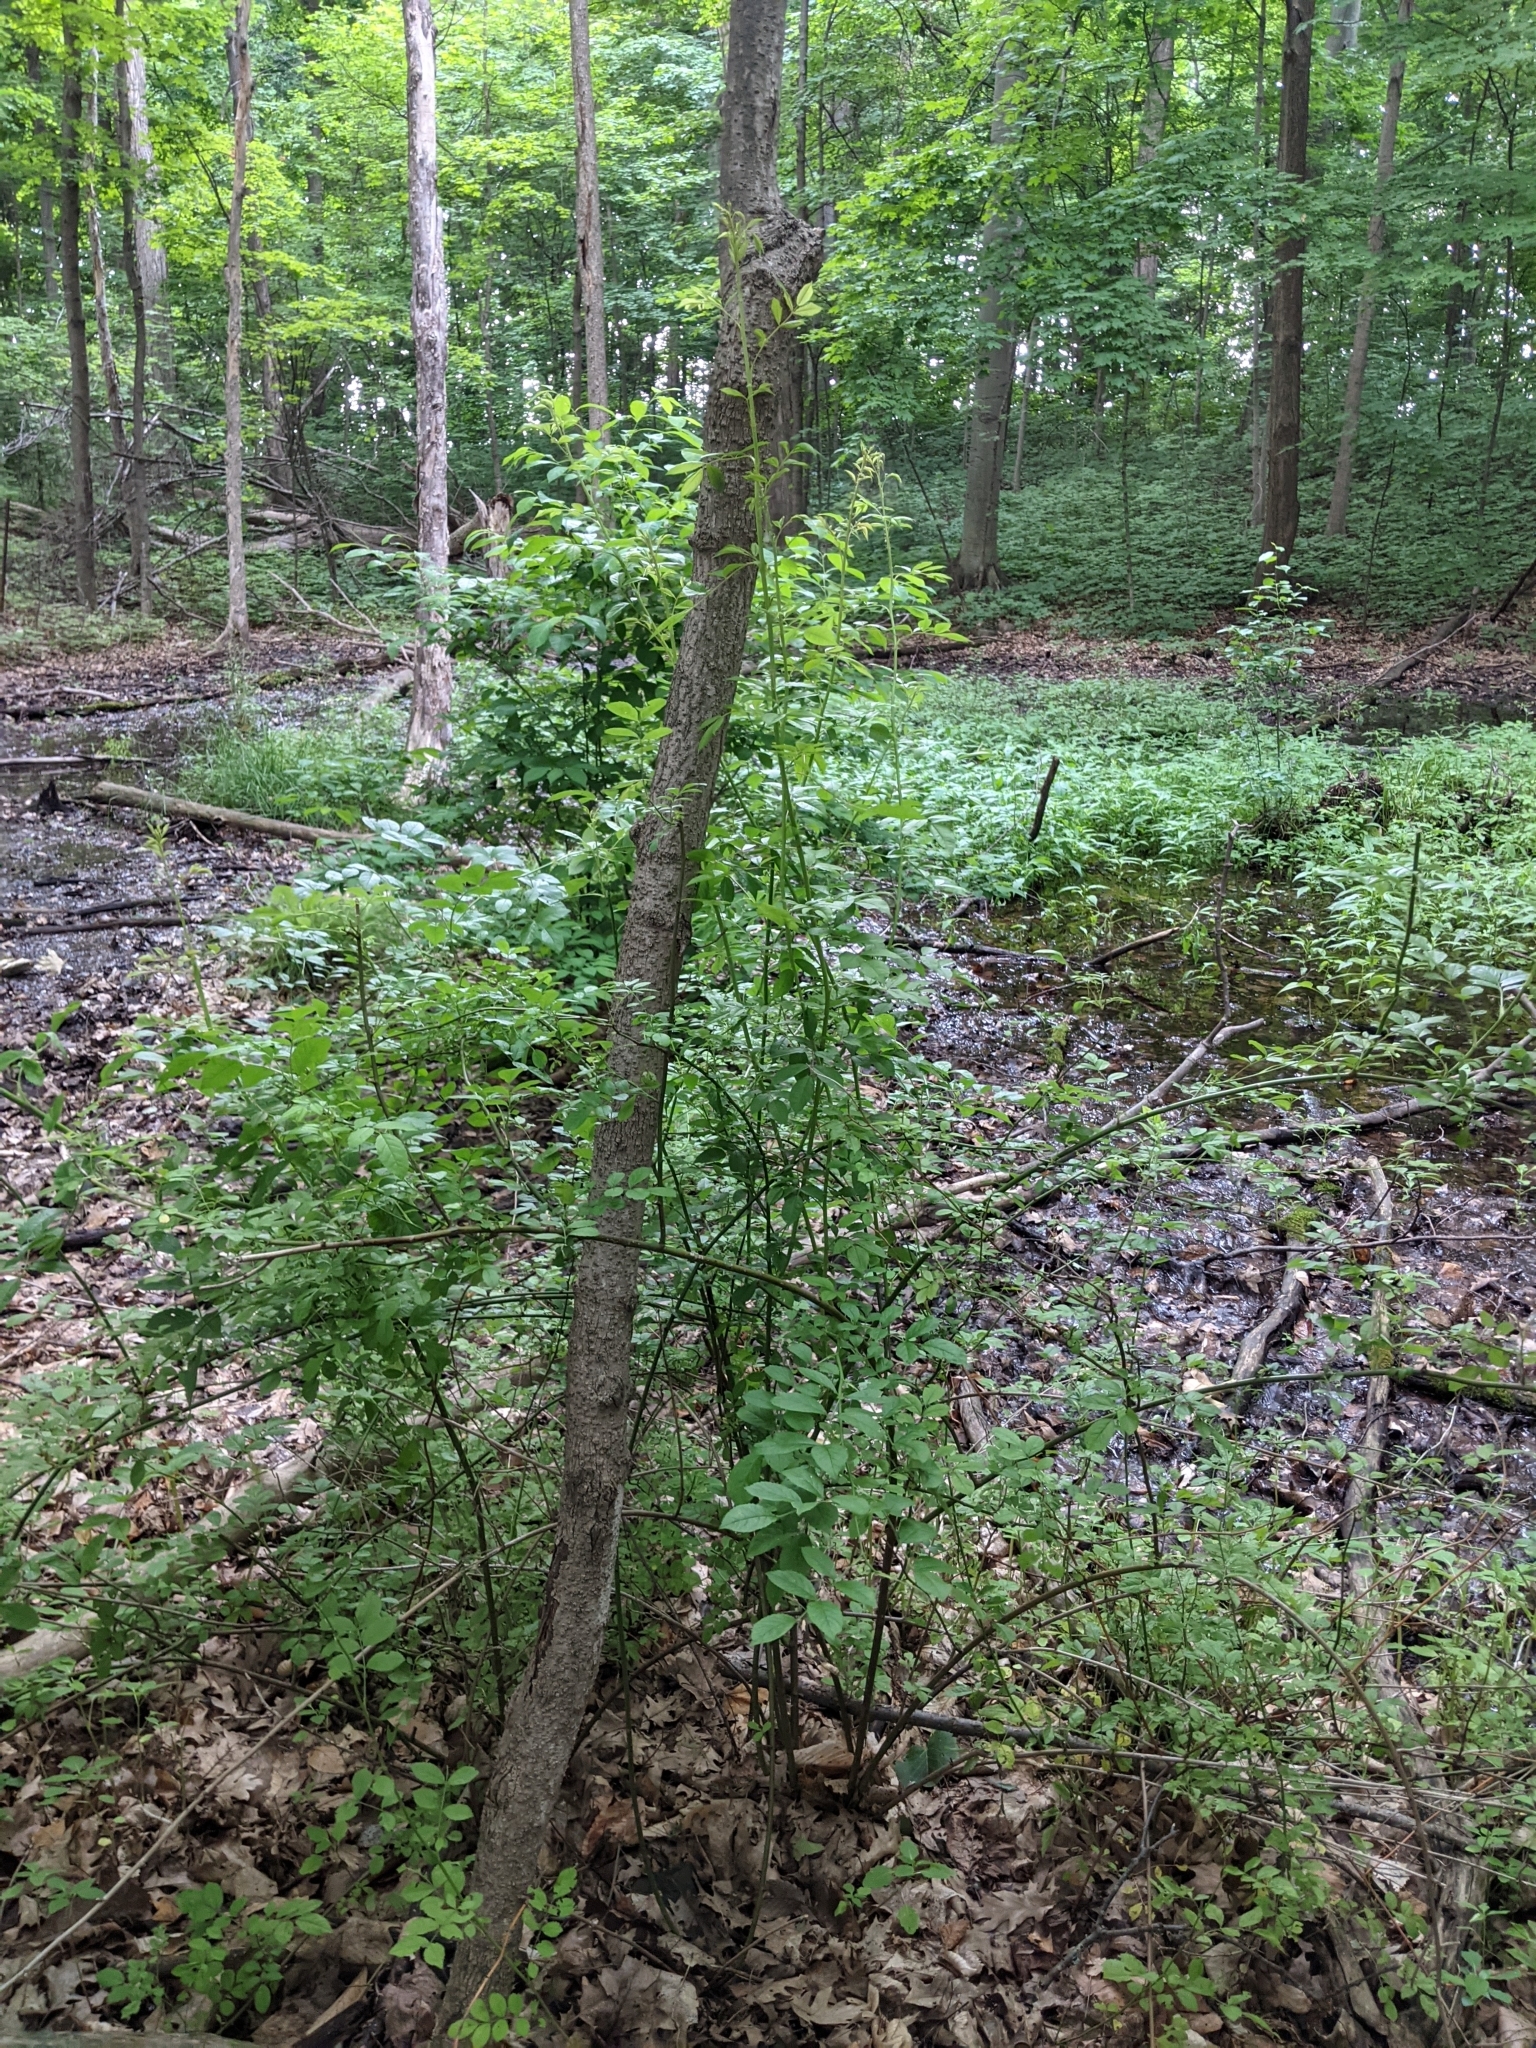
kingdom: Plantae
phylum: Tracheophyta
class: Magnoliopsida
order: Rosales
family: Rosaceae
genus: Rosa
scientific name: Rosa multiflora
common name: Multiflora rose
